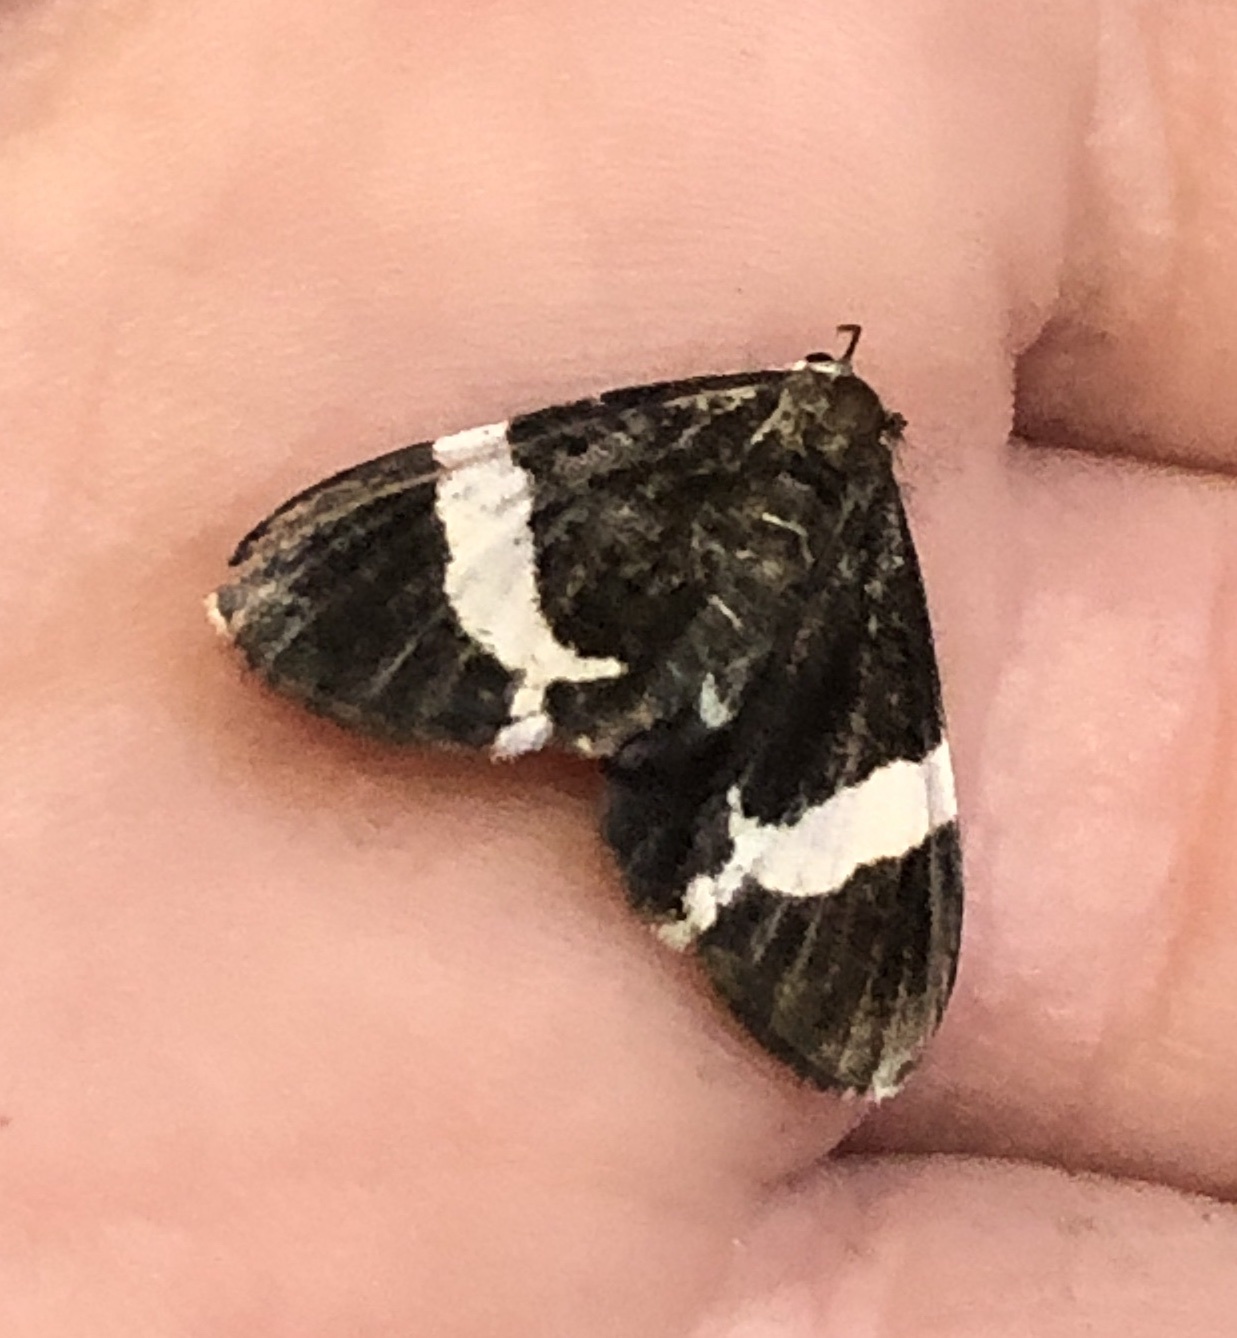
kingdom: Animalia
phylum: Arthropoda
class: Insecta
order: Lepidoptera
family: Geometridae
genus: Trichodezia
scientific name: Trichodezia albovittata
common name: White striped black
